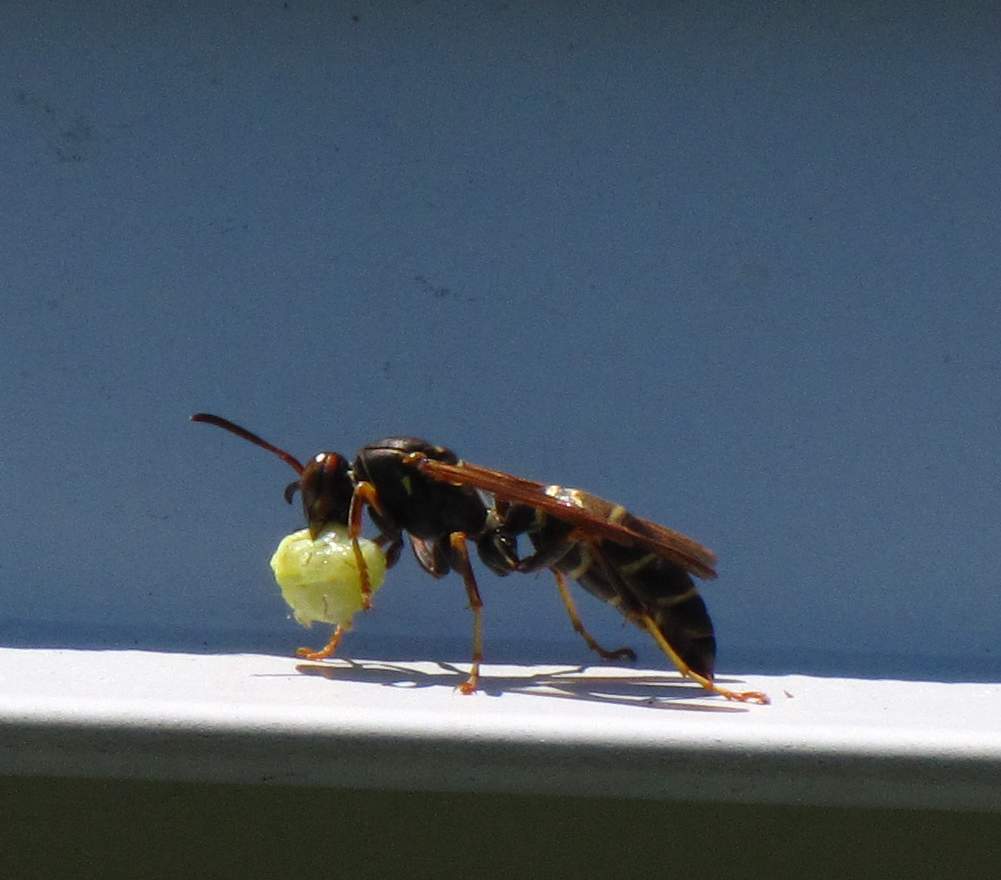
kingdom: Animalia
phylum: Arthropoda
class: Insecta
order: Hymenoptera
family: Eumenidae
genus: Polistes
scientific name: Polistes fuscatus
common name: Dark paper wasp
